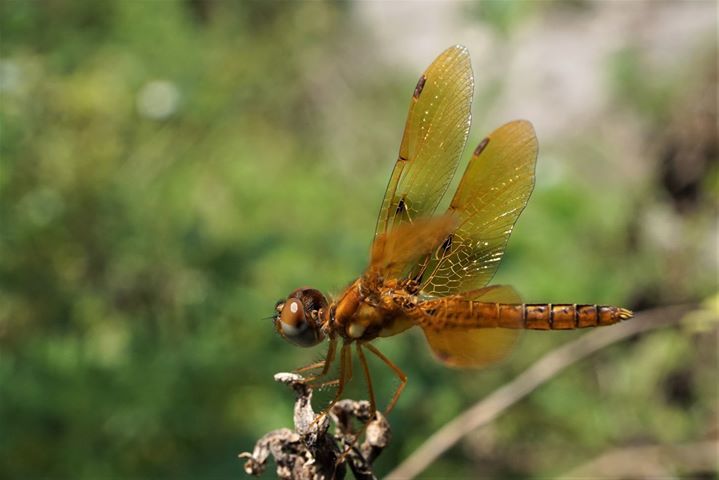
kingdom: Animalia
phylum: Arthropoda
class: Insecta
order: Odonata
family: Libellulidae
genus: Perithemis
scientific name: Perithemis tenera
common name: Eastern amberwing
